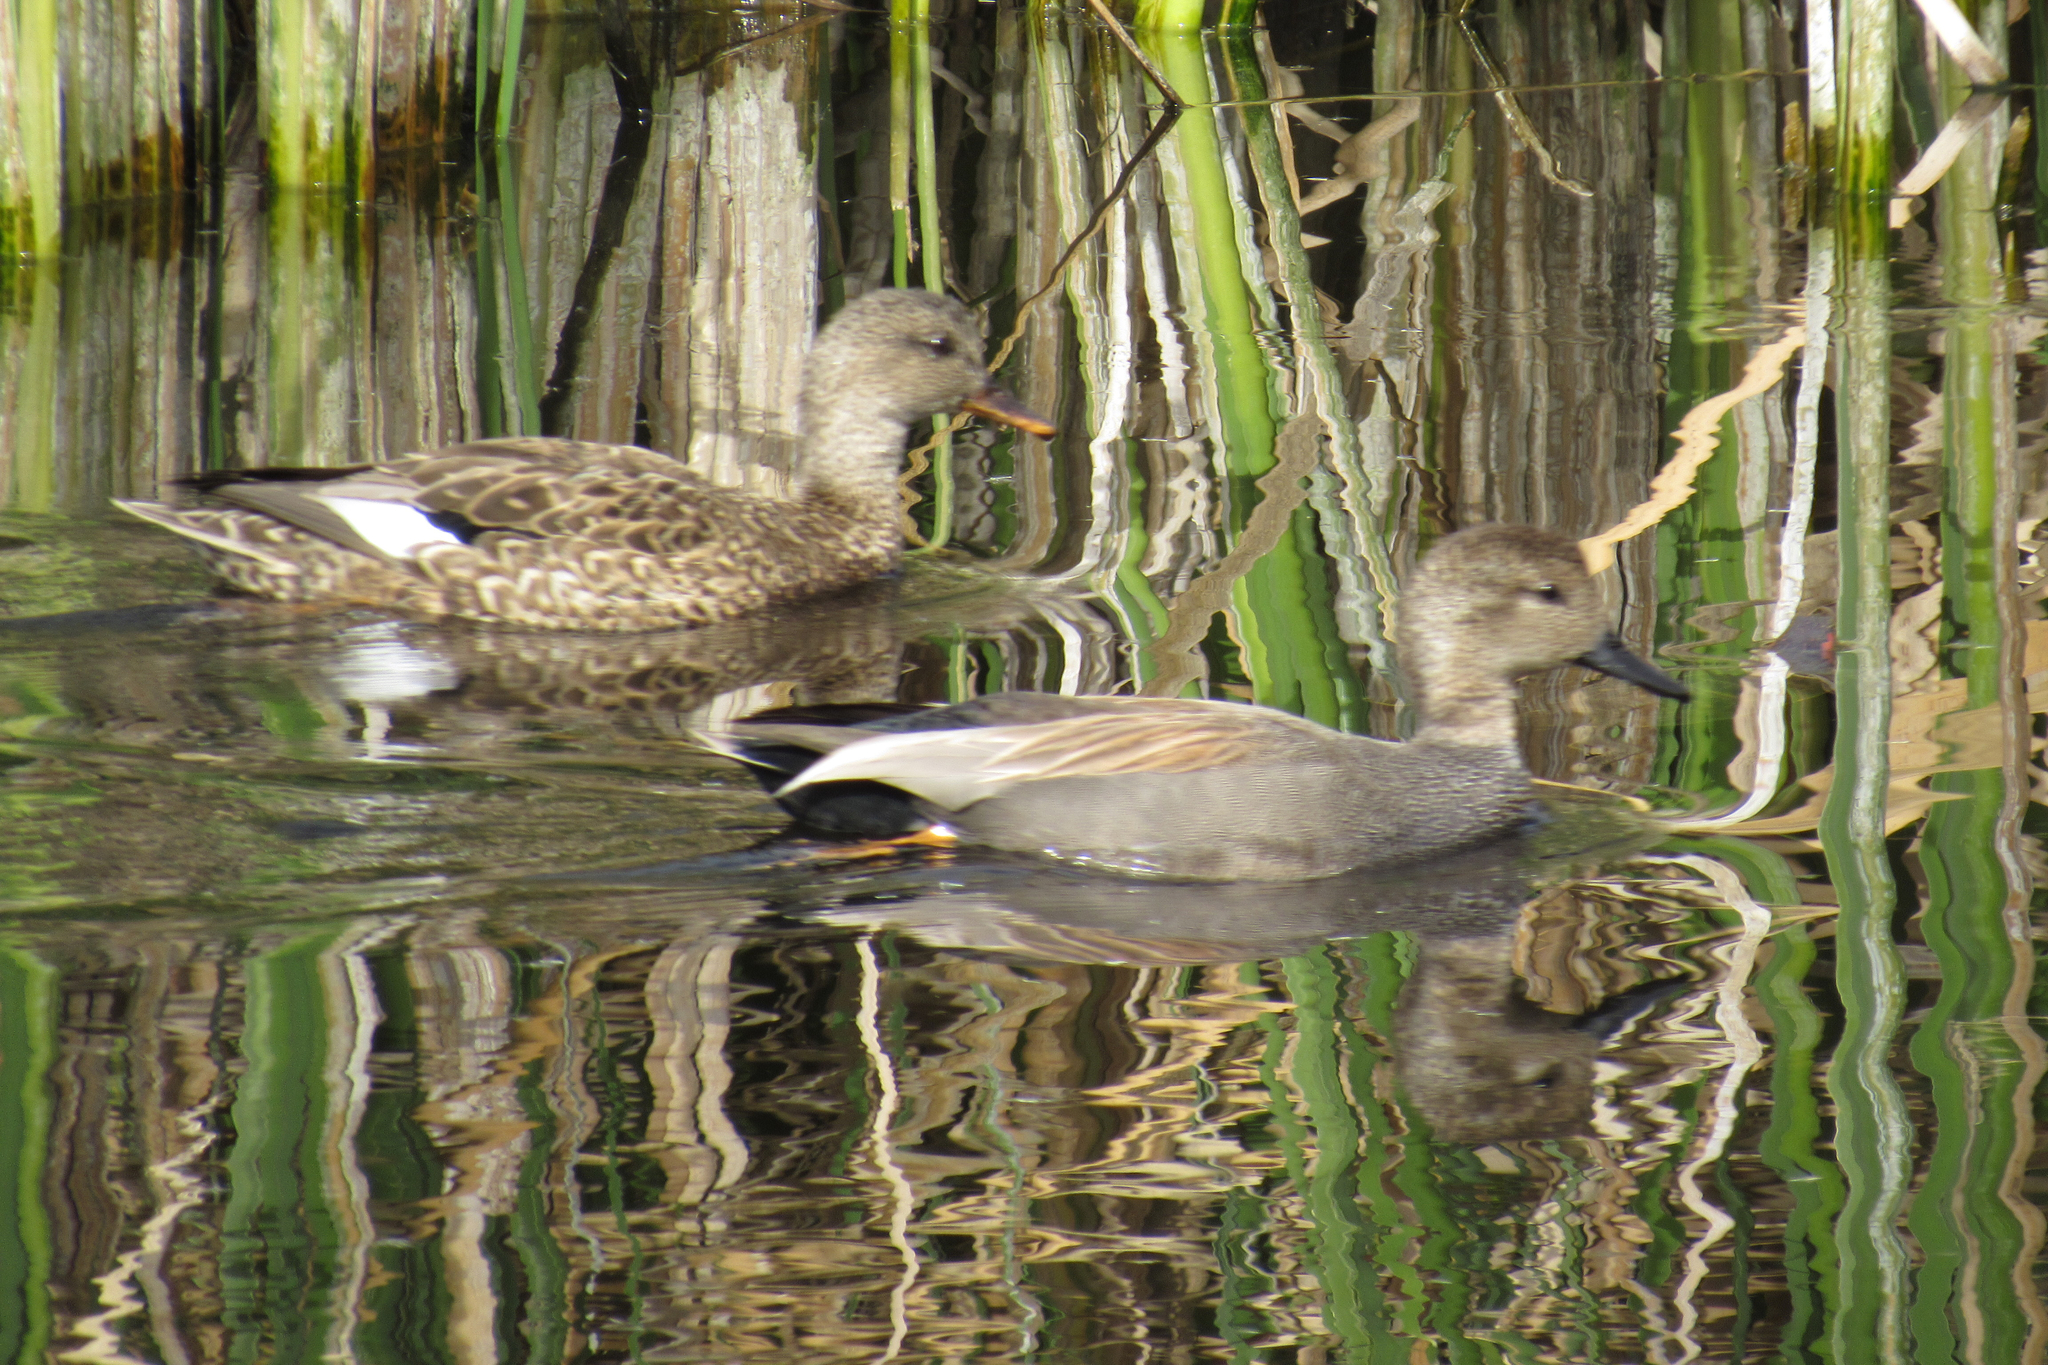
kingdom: Animalia
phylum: Chordata
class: Aves
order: Anseriformes
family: Anatidae
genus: Mareca
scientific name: Mareca strepera
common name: Gadwall
